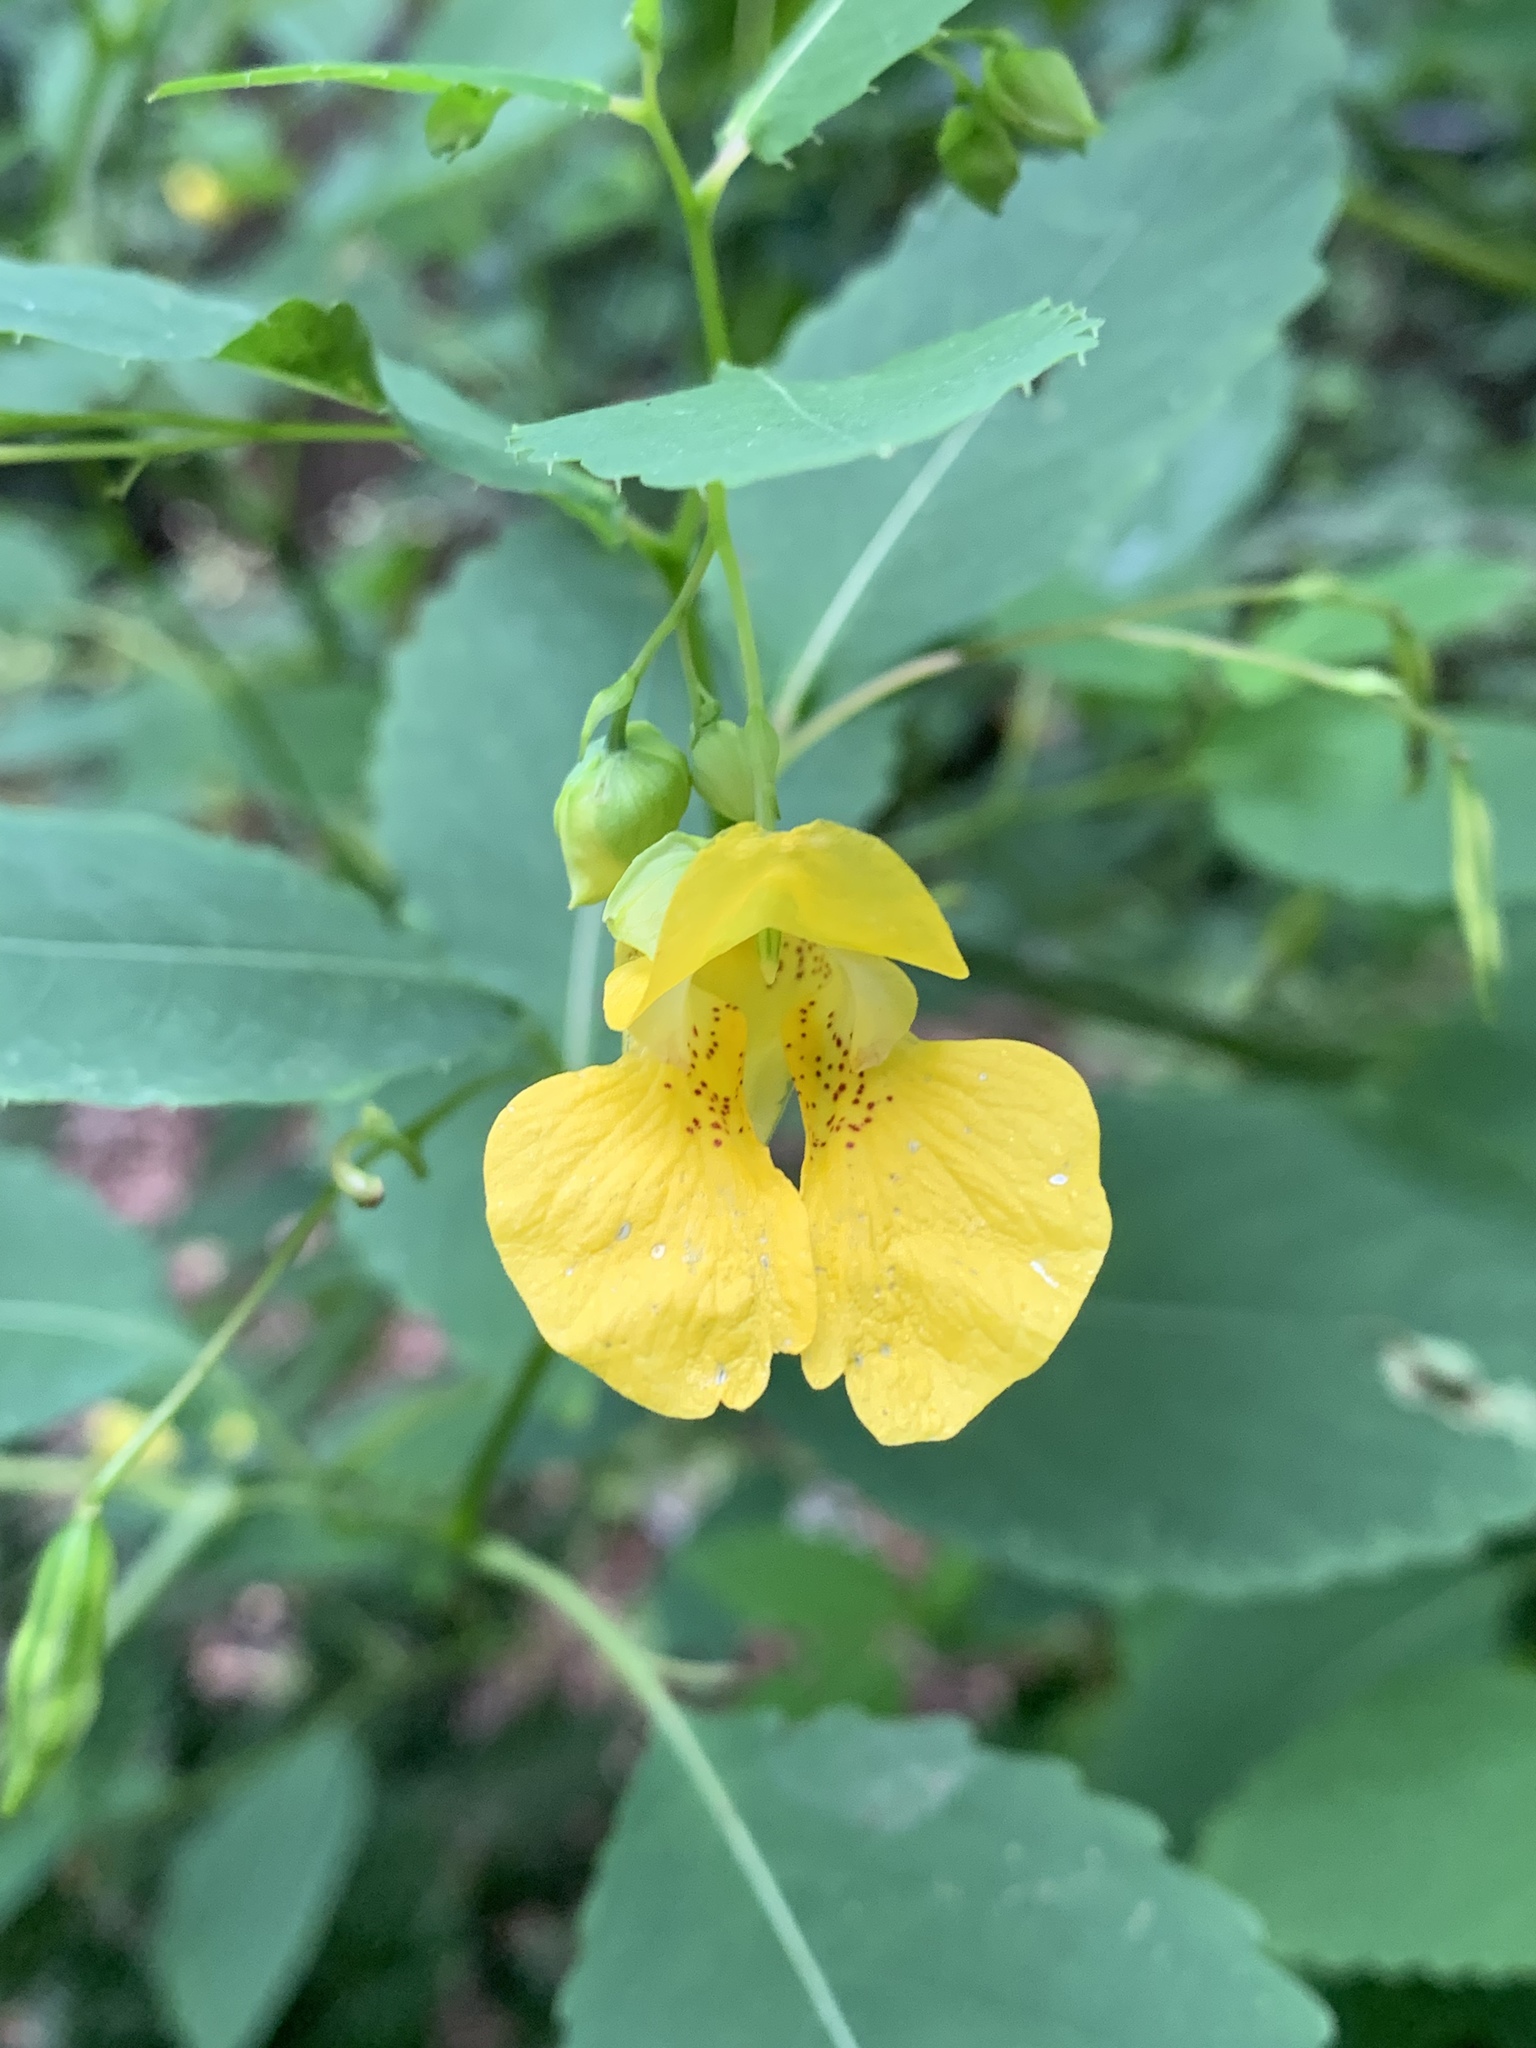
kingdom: Plantae
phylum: Tracheophyta
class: Magnoliopsida
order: Ericales
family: Balsaminaceae
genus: Impatiens
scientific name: Impatiens pallida
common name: Pale snapweed
